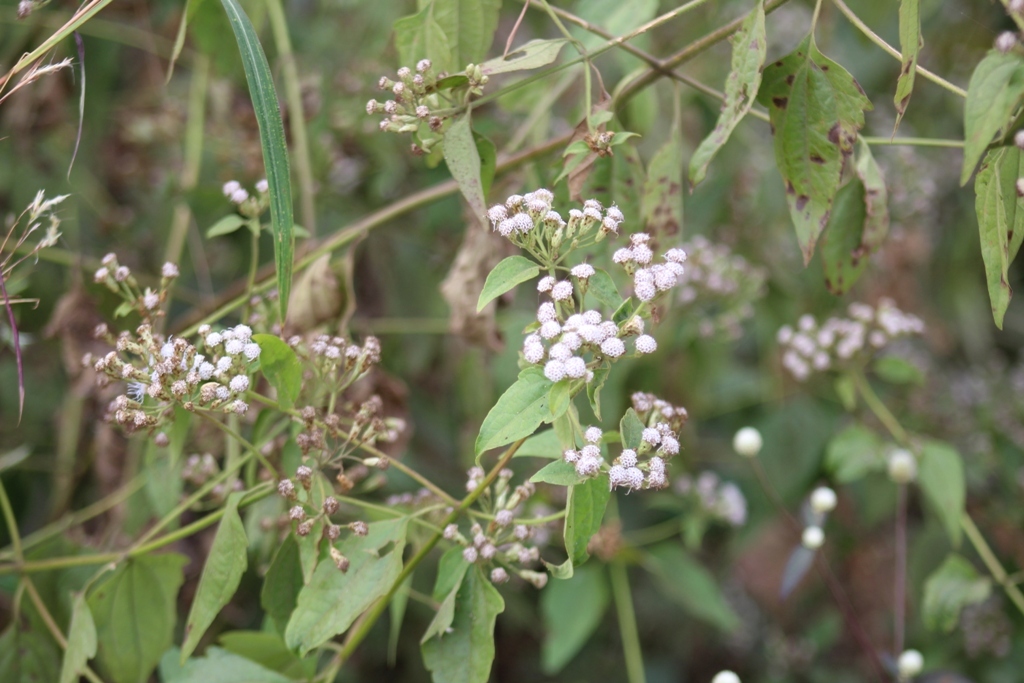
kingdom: Plantae
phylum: Tracheophyta
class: Magnoliopsida
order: Asterales
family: Asteraceae
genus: Chromolaena
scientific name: Chromolaena odorata
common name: Siamweed
